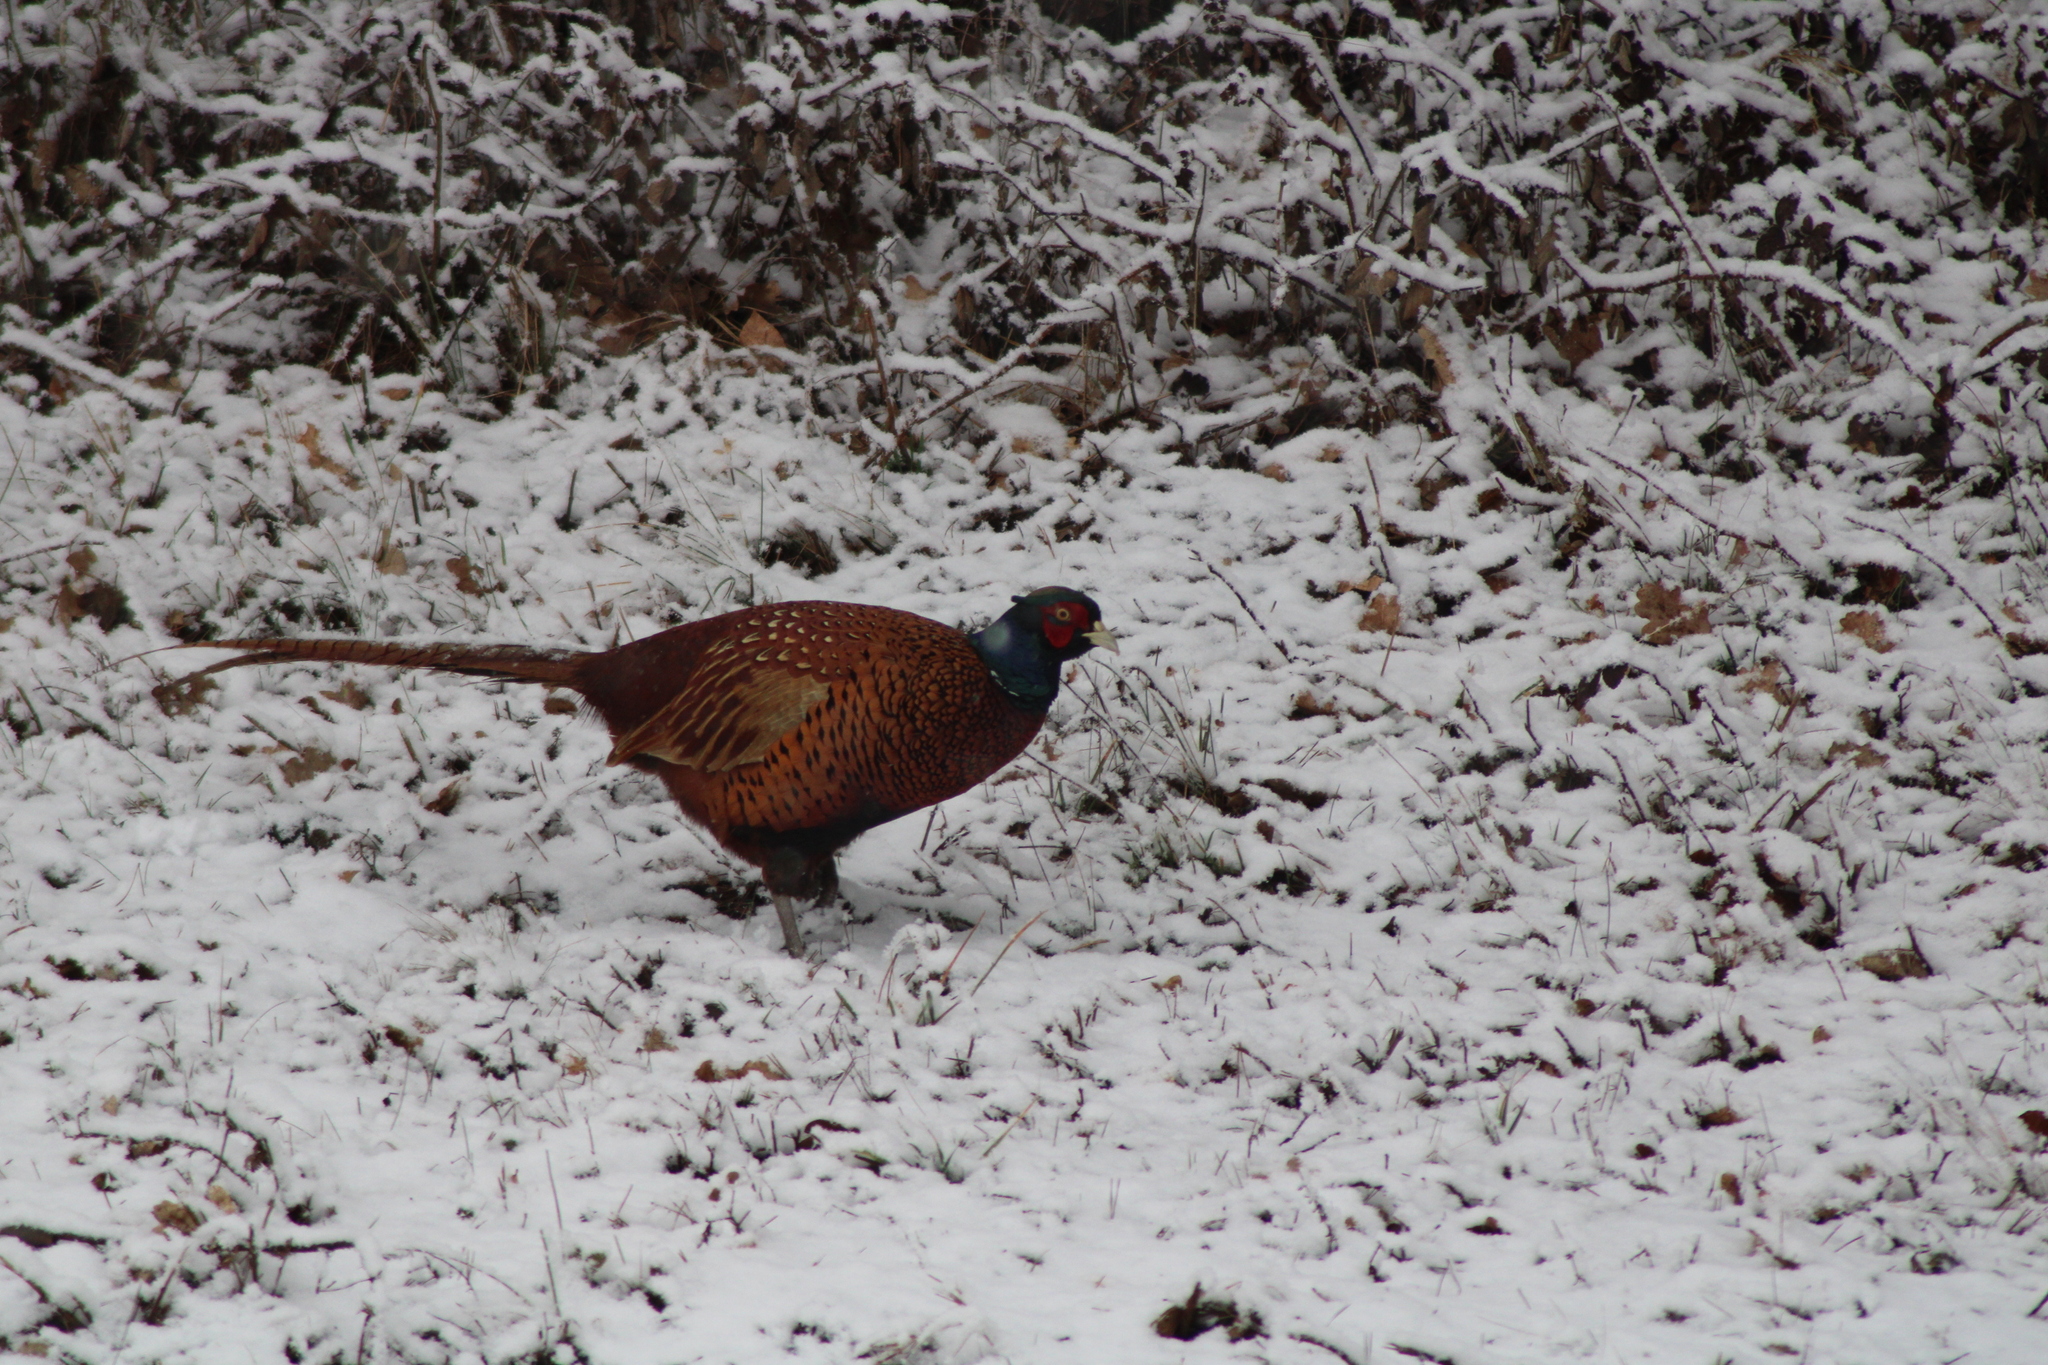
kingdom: Animalia
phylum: Chordata
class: Aves
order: Galliformes
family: Phasianidae
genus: Phasianus
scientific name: Phasianus colchicus
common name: Common pheasant
